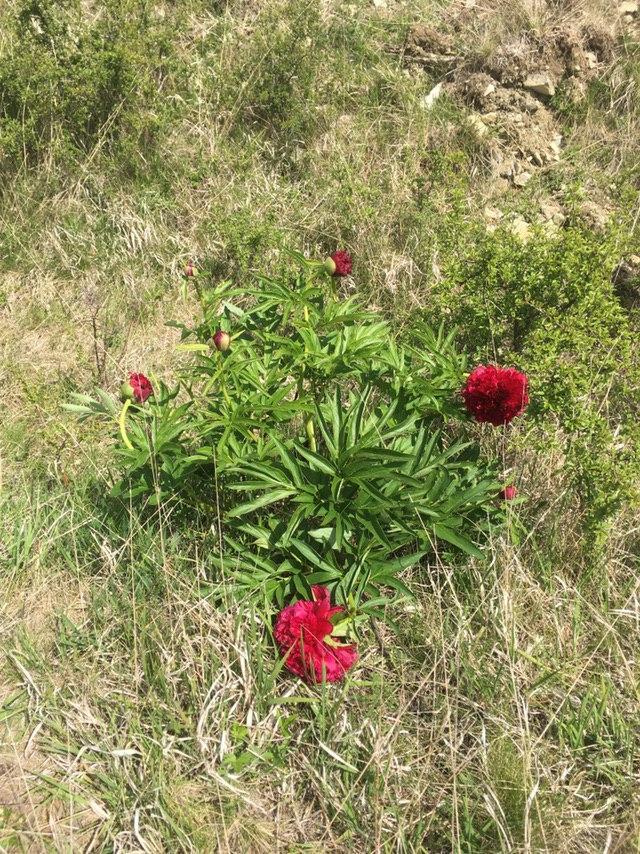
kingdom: Plantae
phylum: Tracheophyta
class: Magnoliopsida
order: Saxifragales
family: Paeoniaceae
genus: Paeonia
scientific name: Paeonia officinalis
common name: Common peony
